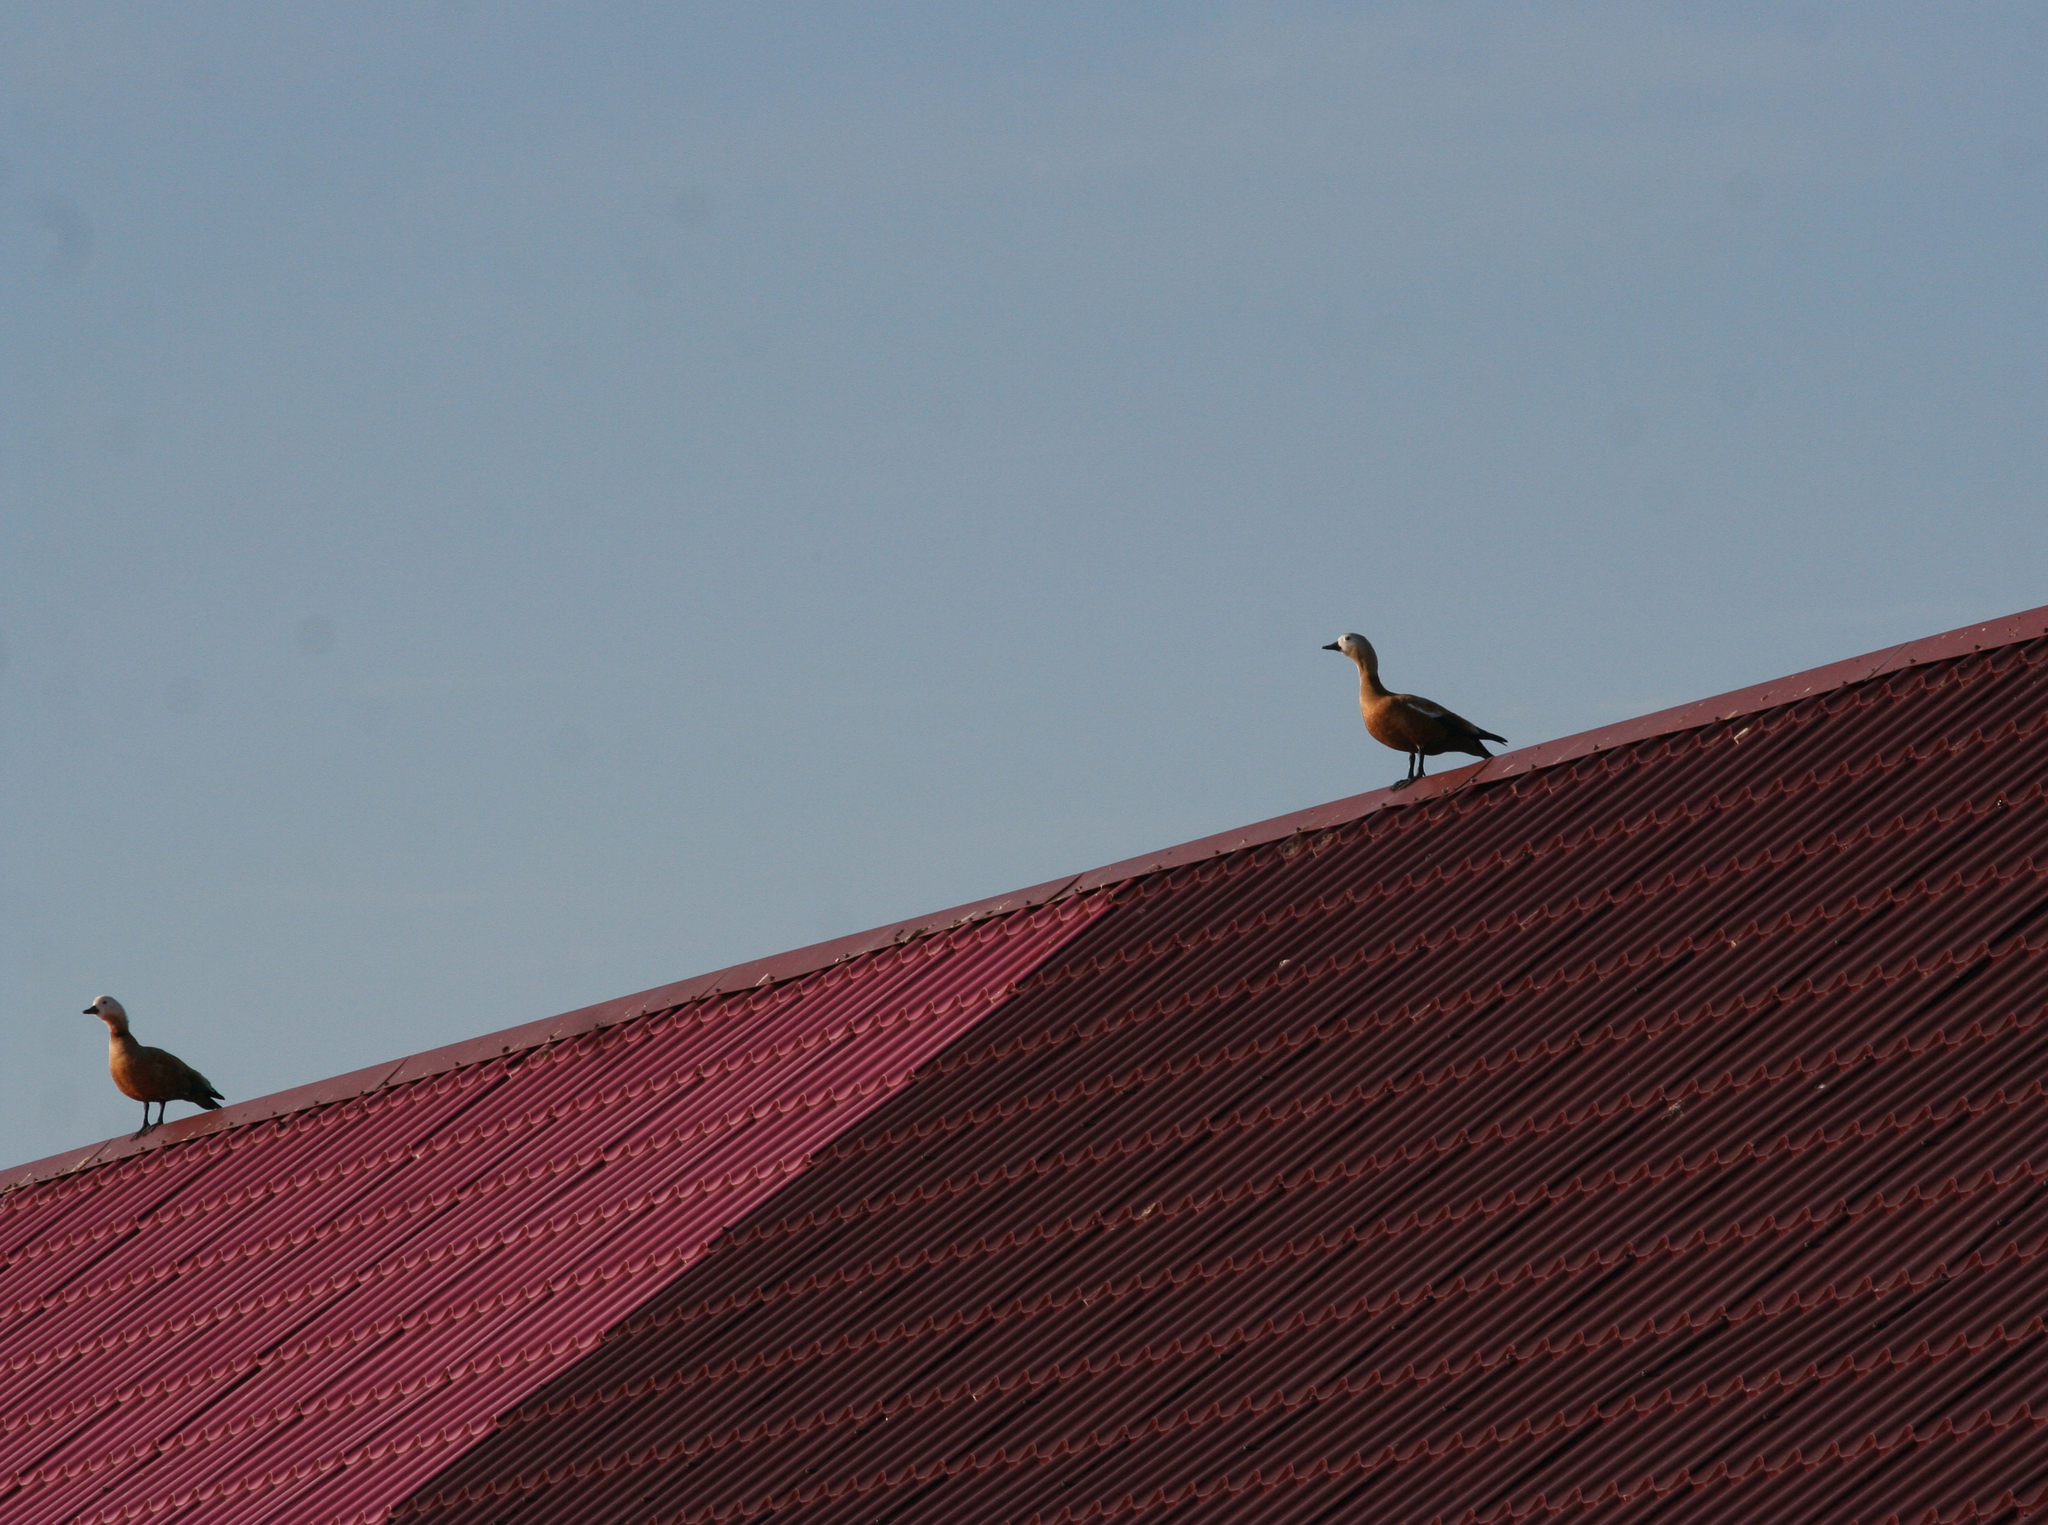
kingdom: Animalia
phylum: Chordata
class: Aves
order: Anseriformes
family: Anatidae
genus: Tadorna
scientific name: Tadorna ferruginea
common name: Ruddy shelduck
